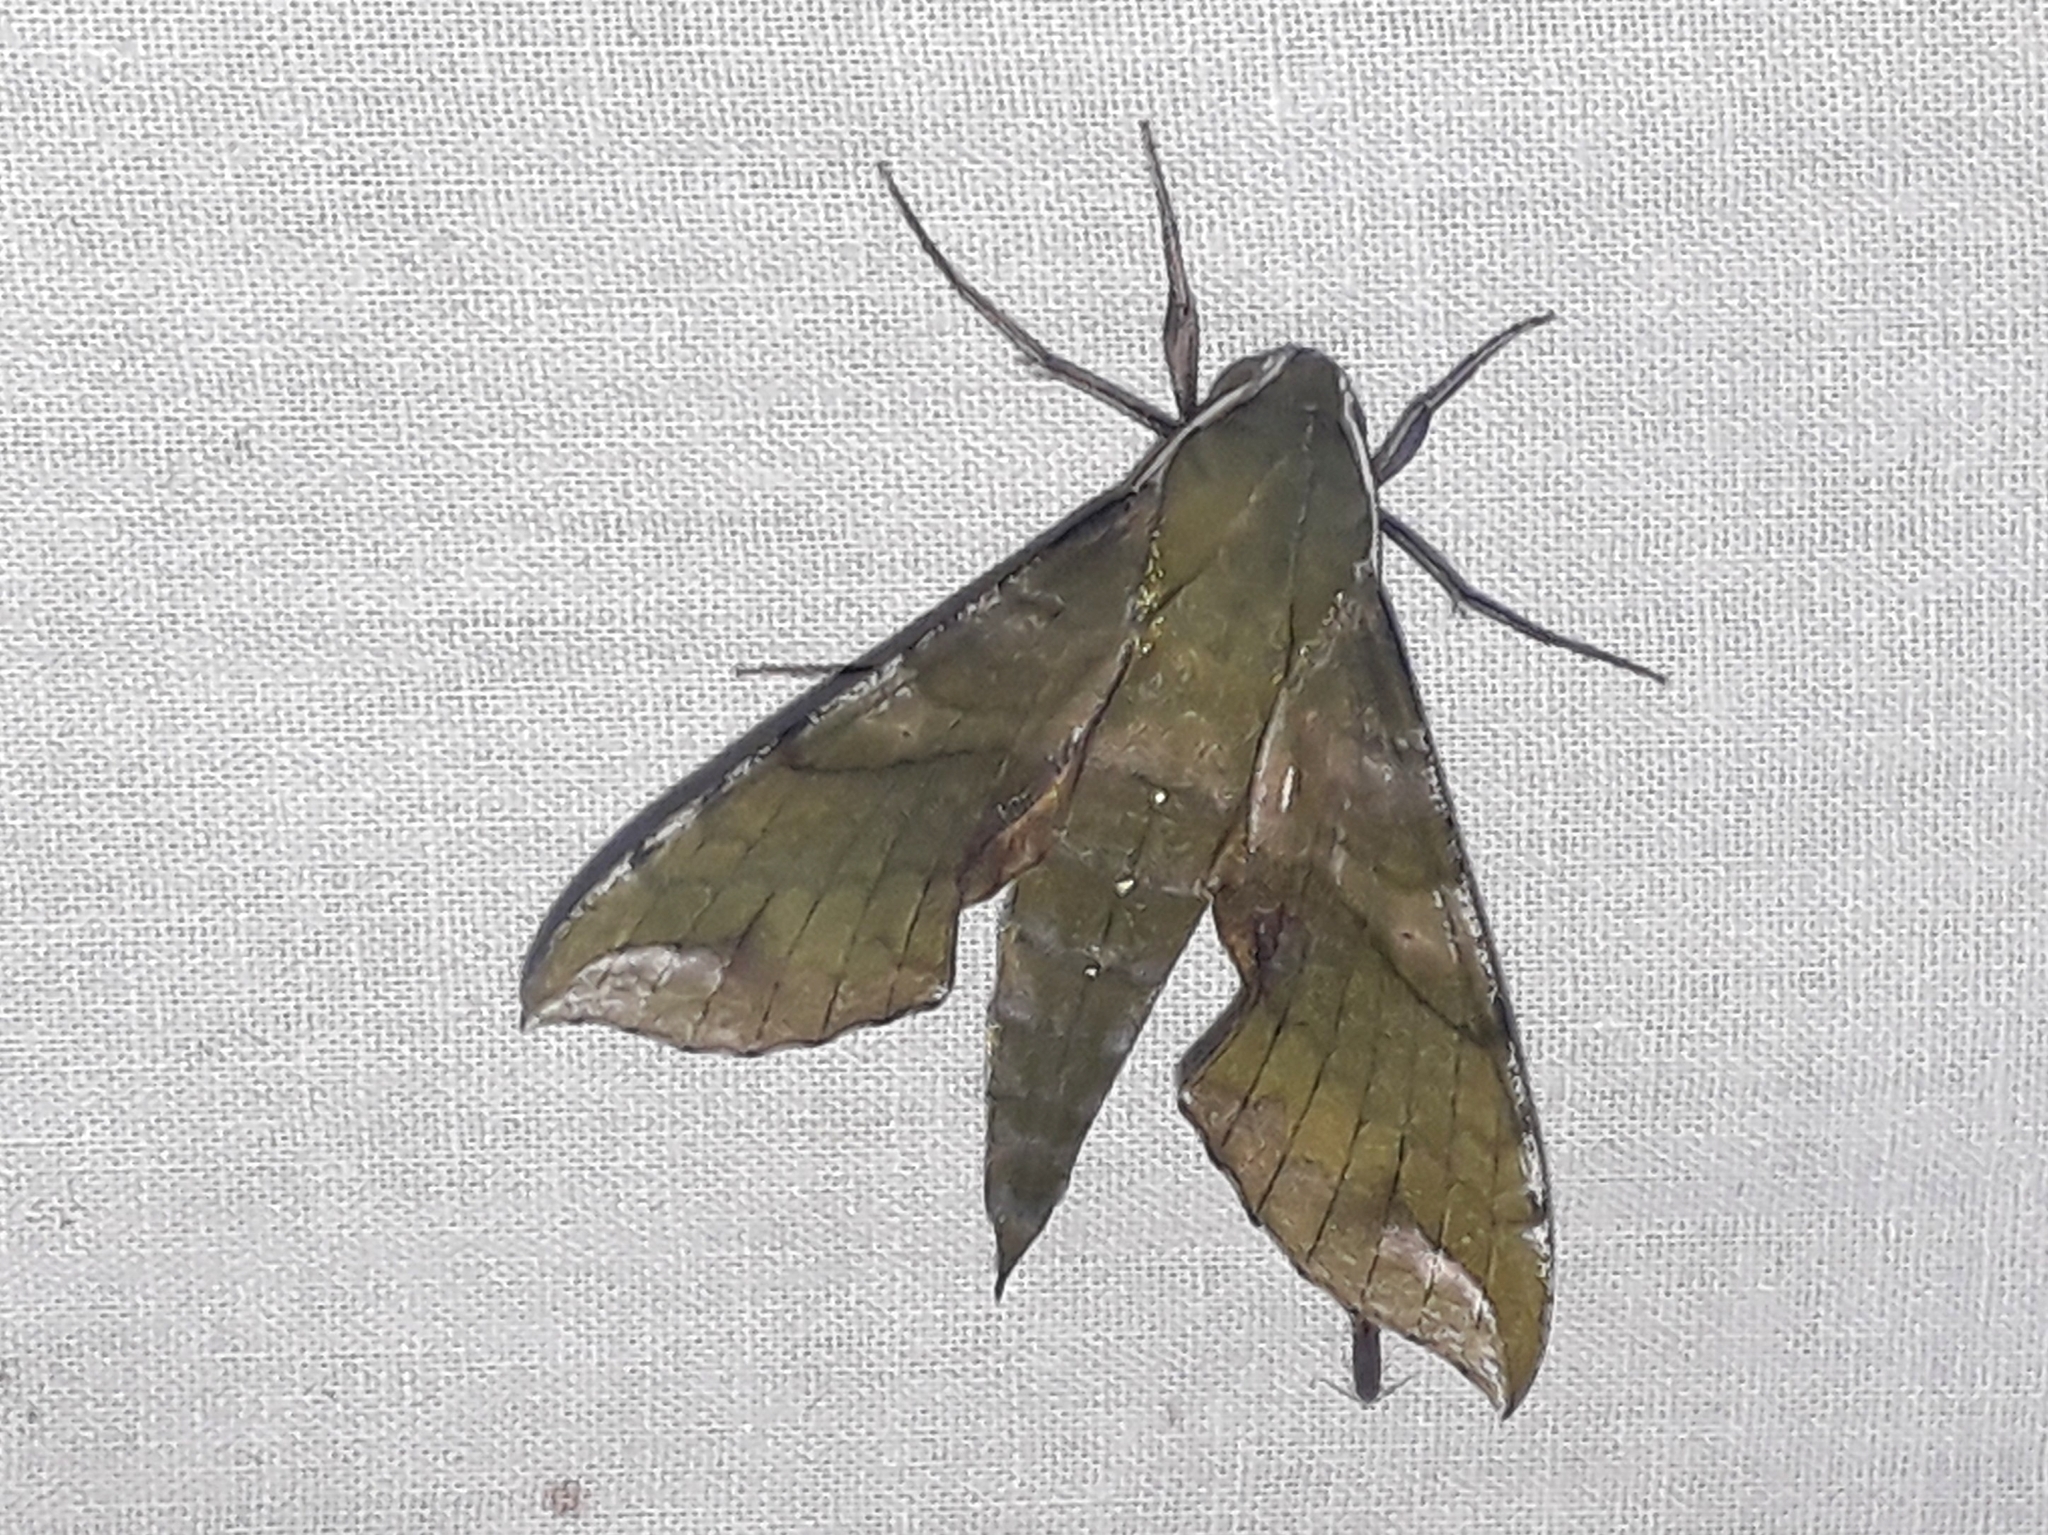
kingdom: Animalia
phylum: Arthropoda
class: Insecta
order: Lepidoptera
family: Sphingidae
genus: Xylophanes
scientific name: Xylophanes pluto
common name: Pluto sphinx
